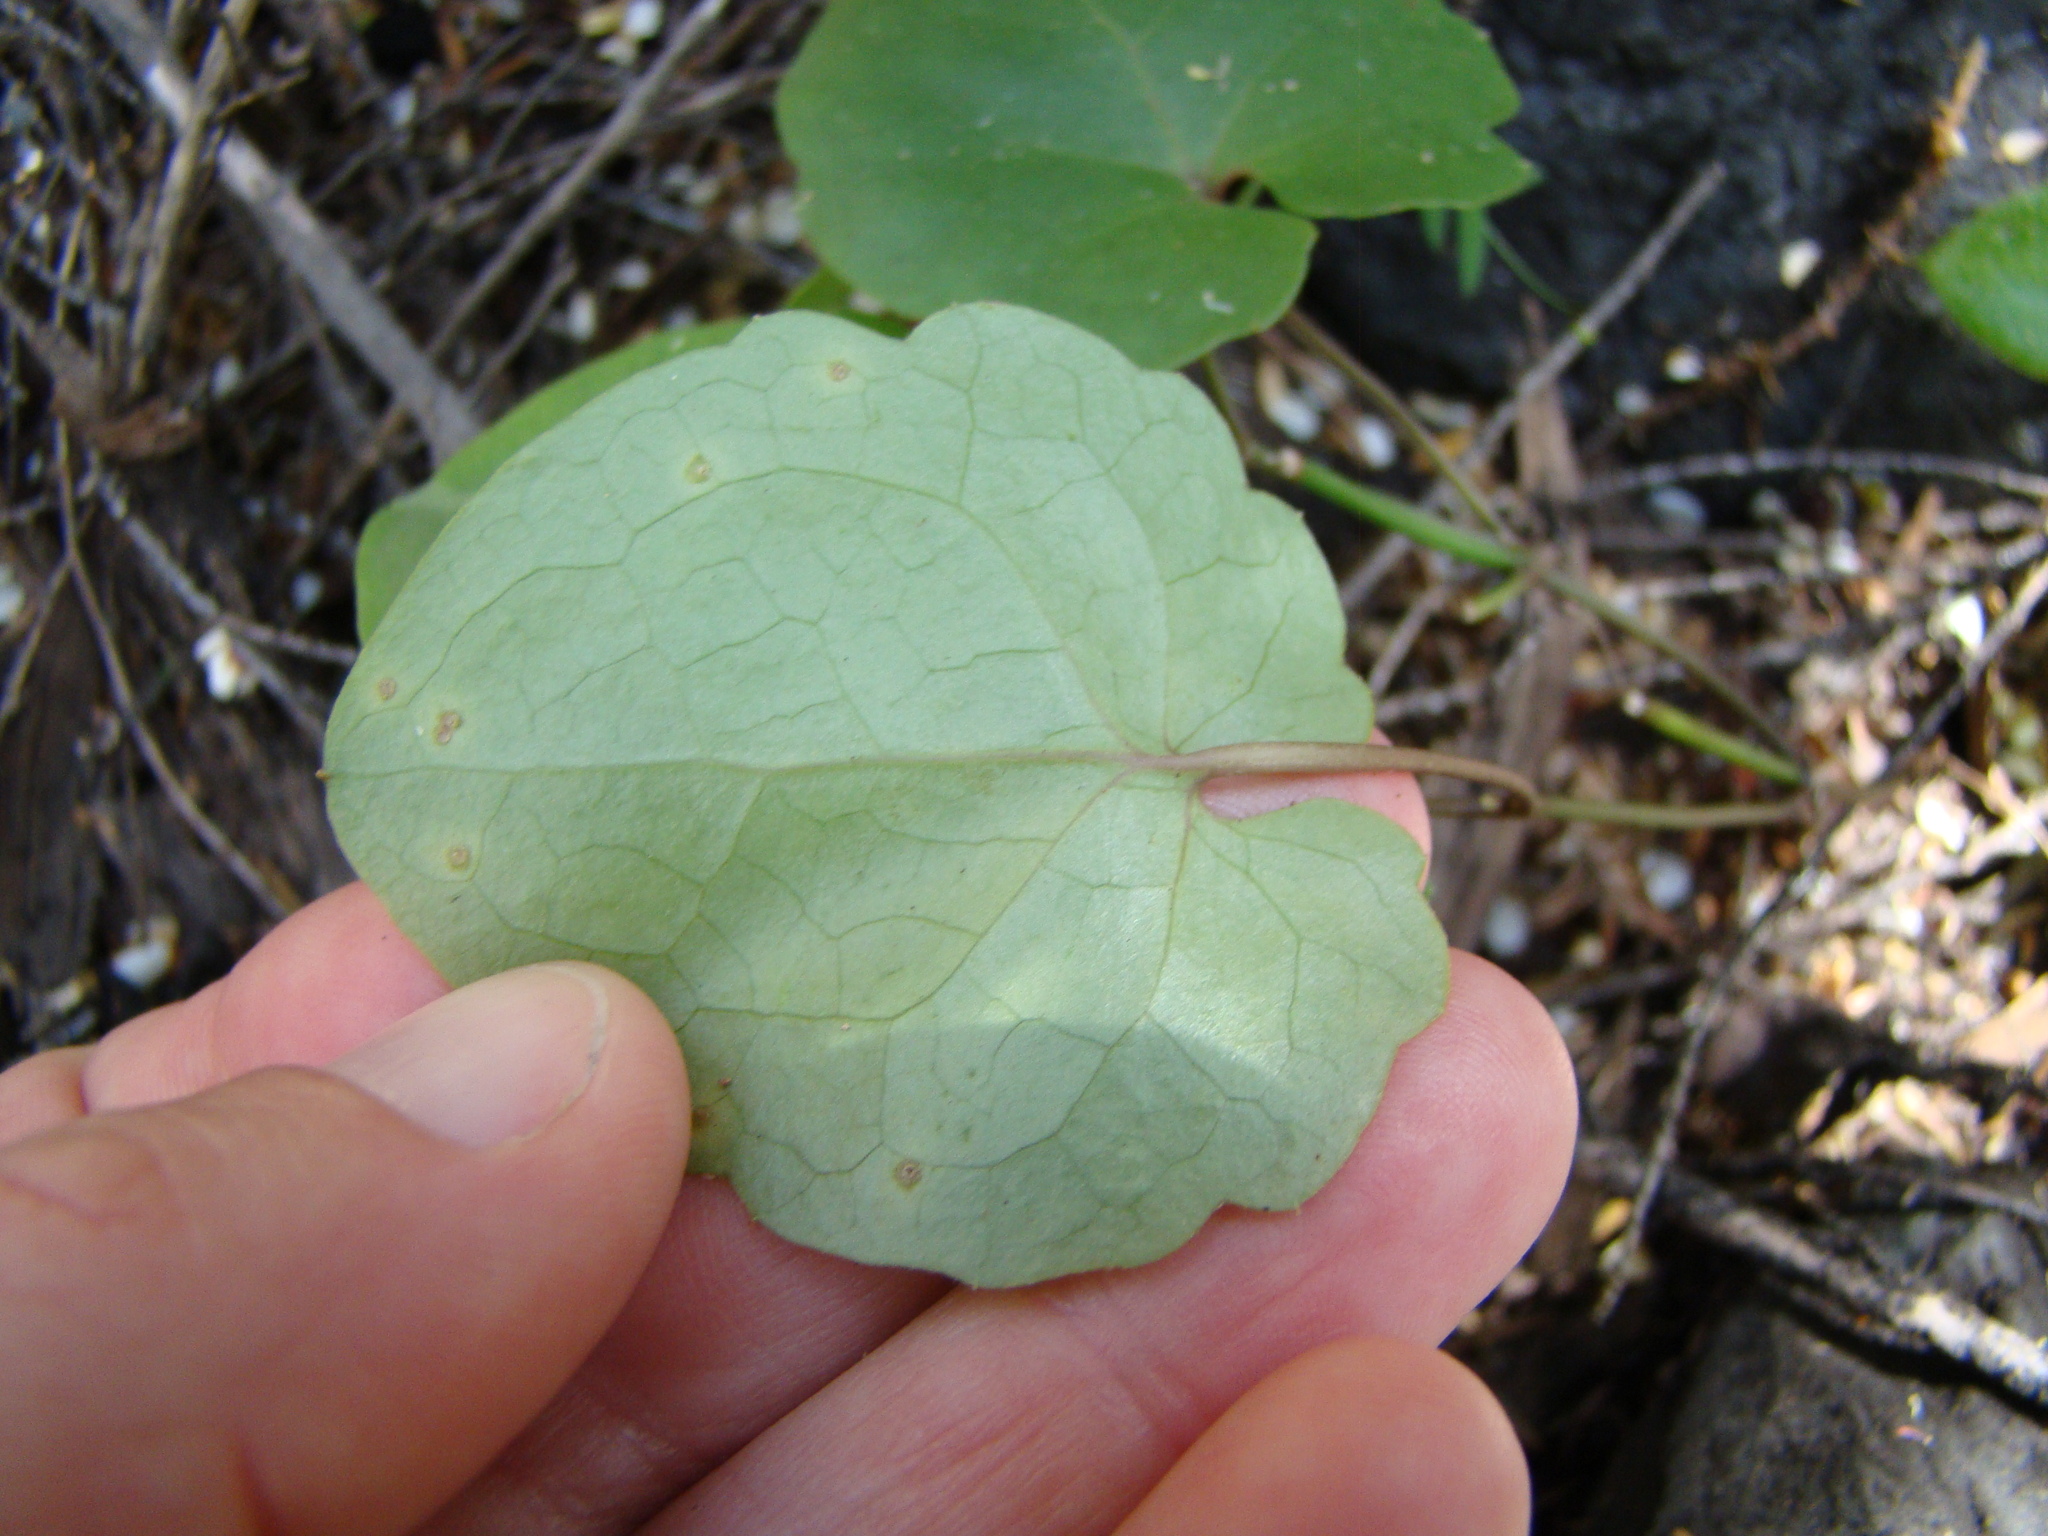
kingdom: Plantae
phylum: Tracheophyta
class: Magnoliopsida
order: Ranunculales
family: Ranunculaceae
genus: Clematis
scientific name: Clematis forsteri
